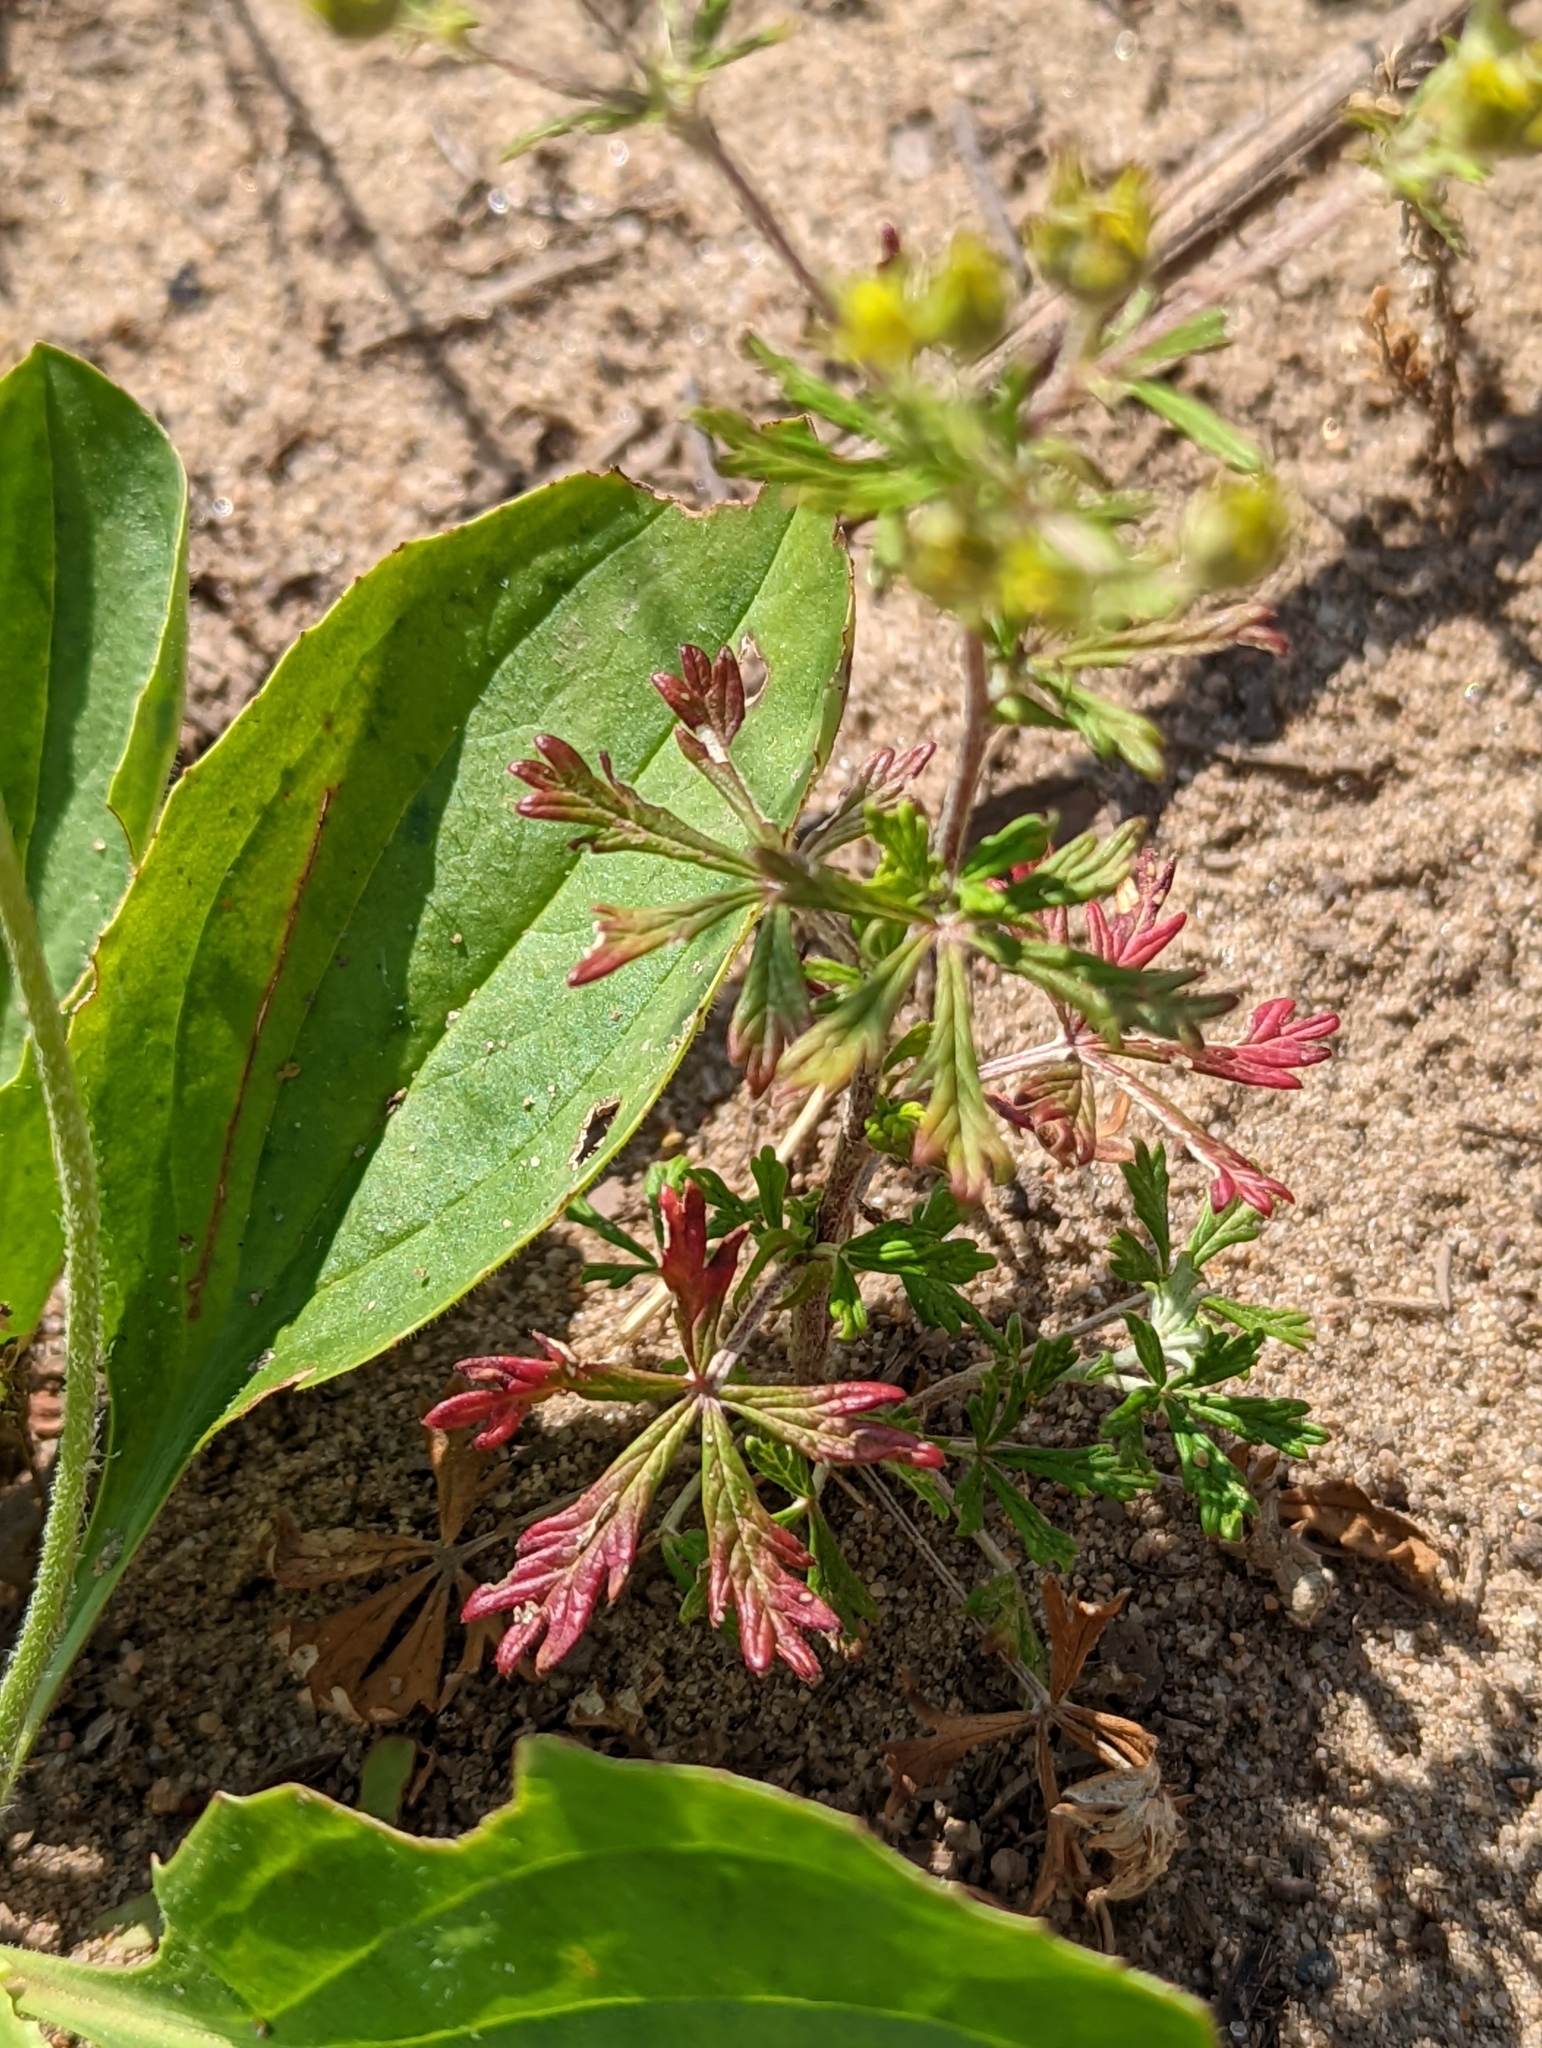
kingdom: Plantae
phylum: Tracheophyta
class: Magnoliopsida
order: Rosales
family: Rosaceae
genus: Potentilla
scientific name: Potentilla argentea
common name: Hoary cinquefoil
